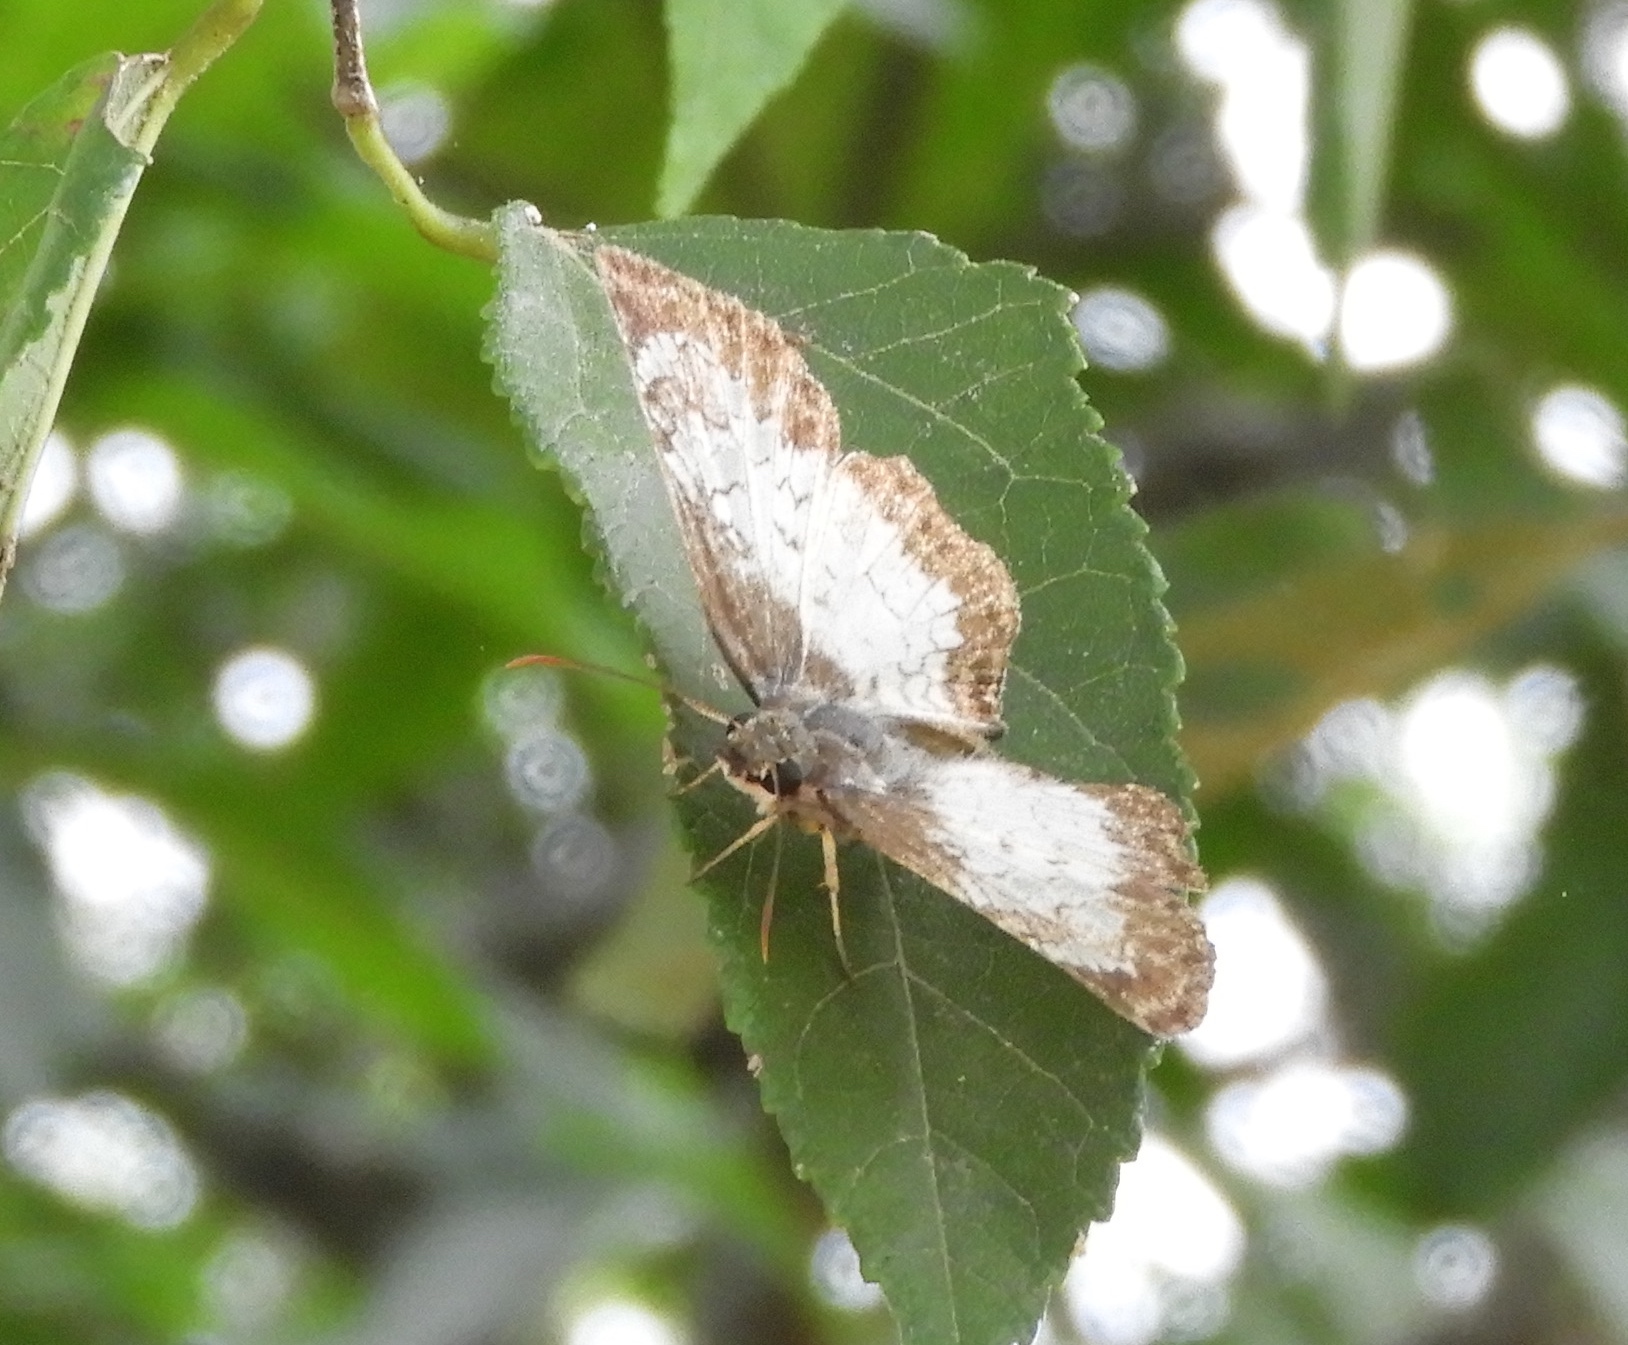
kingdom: Animalia
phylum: Arthropoda
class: Insecta
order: Lepidoptera
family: Hesperiidae
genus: Antigonus
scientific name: Antigonus emorsa
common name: White spurwing
